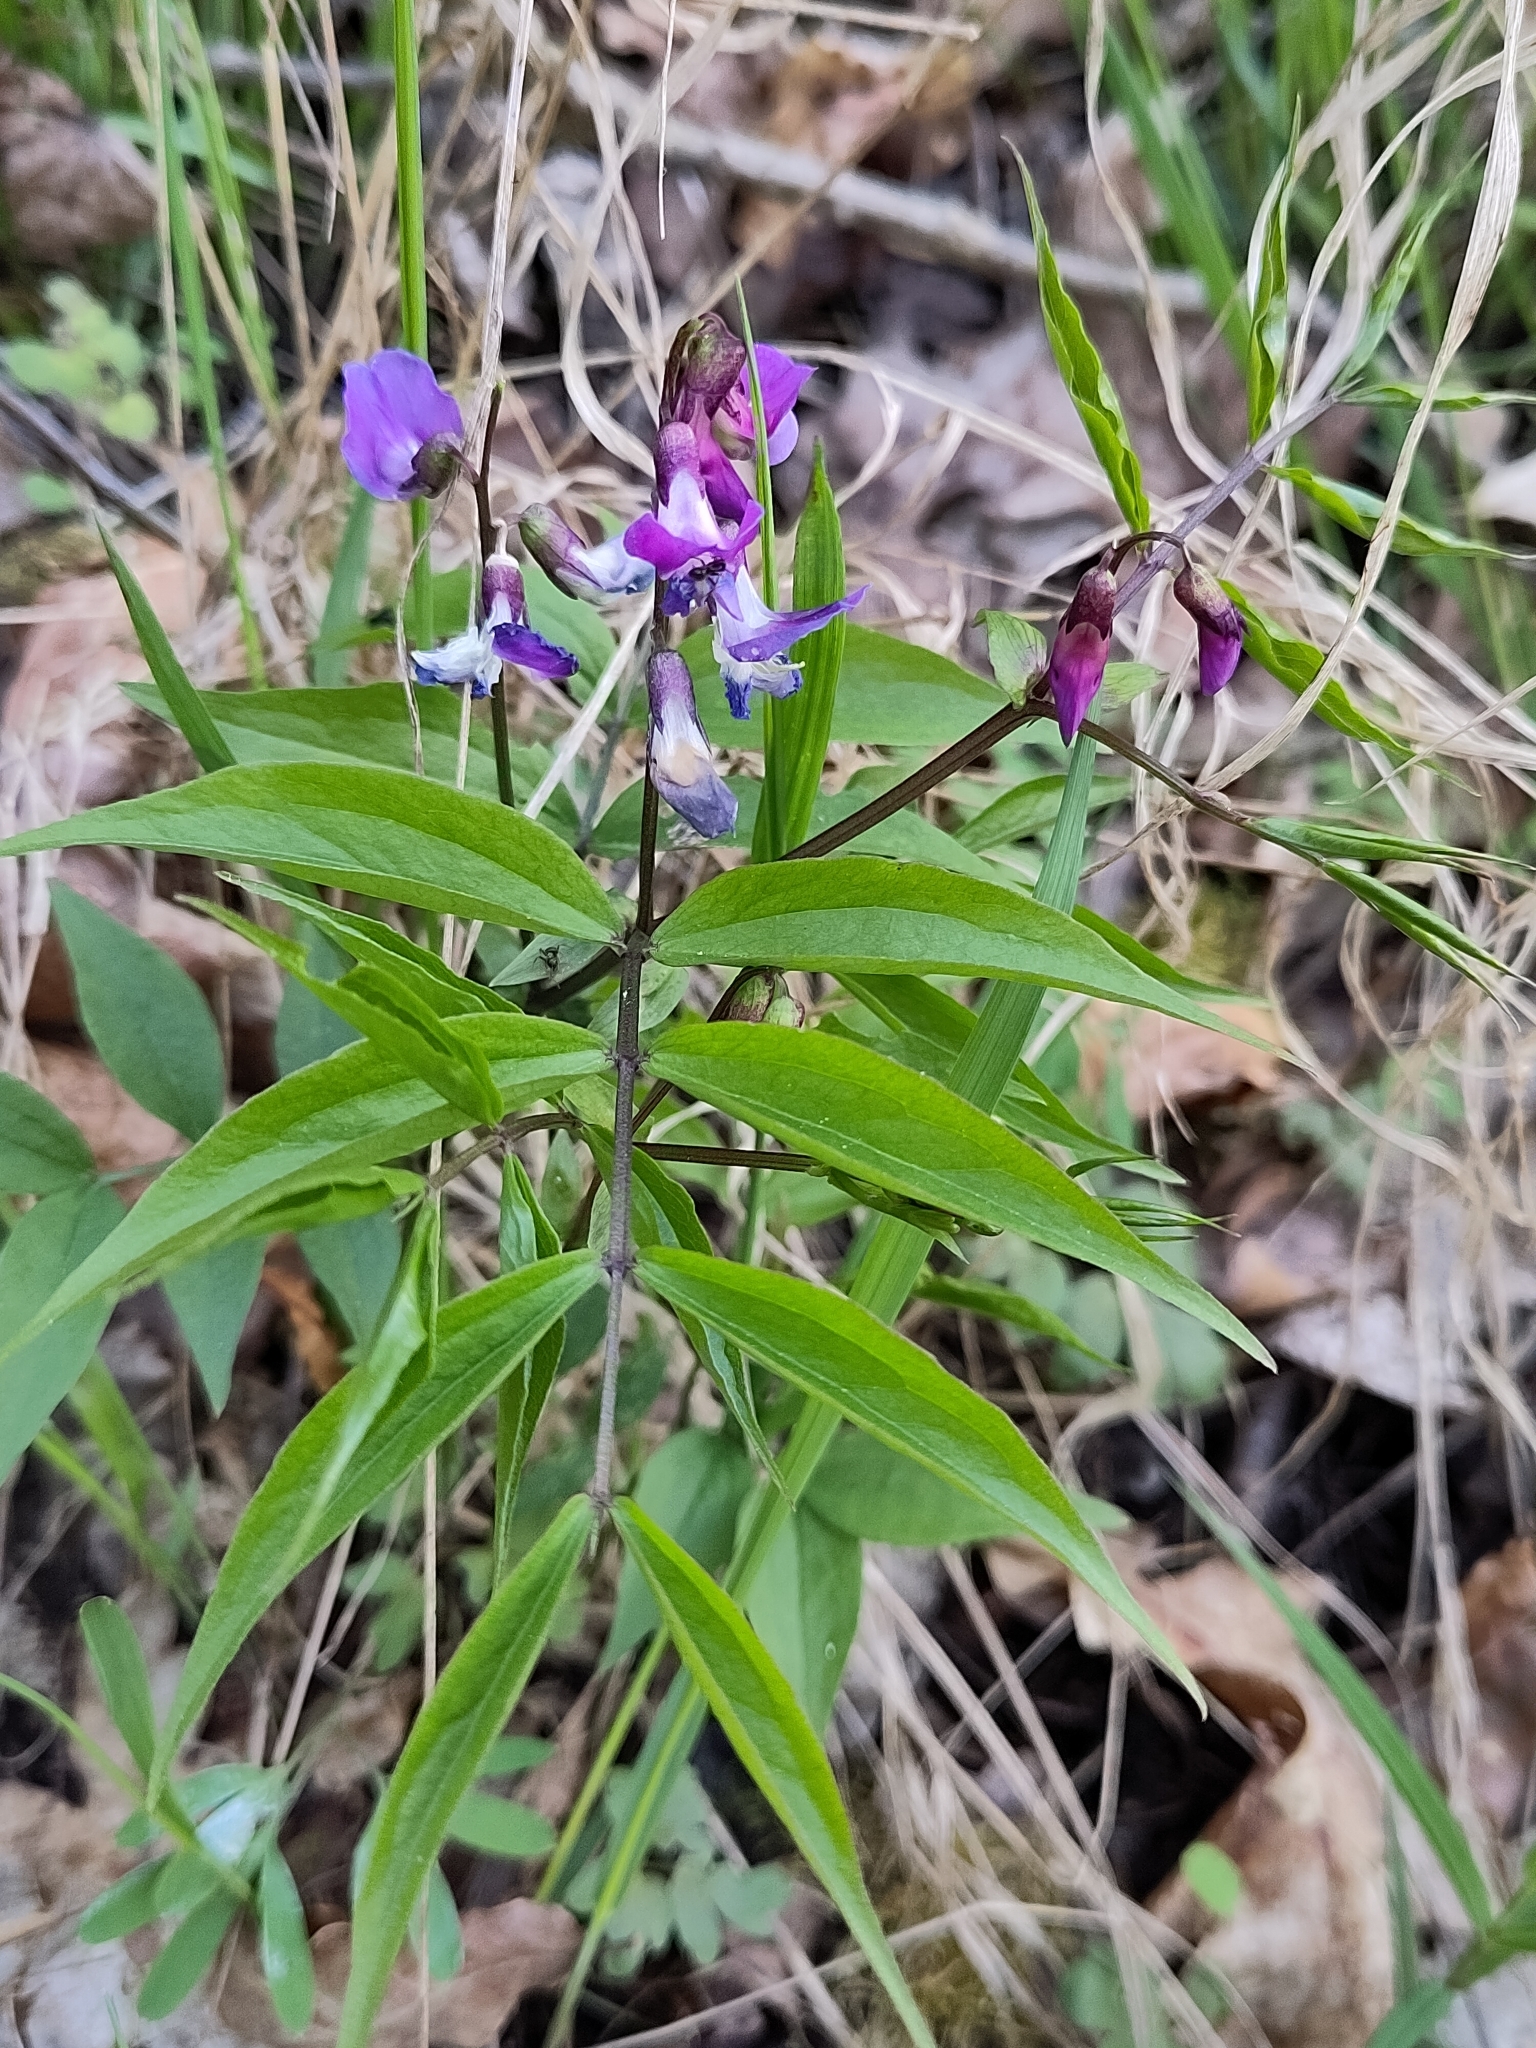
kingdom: Plantae
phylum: Tracheophyta
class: Magnoliopsida
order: Fabales
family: Fabaceae
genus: Lathyrus
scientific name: Lathyrus vernus
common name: Spring pea
